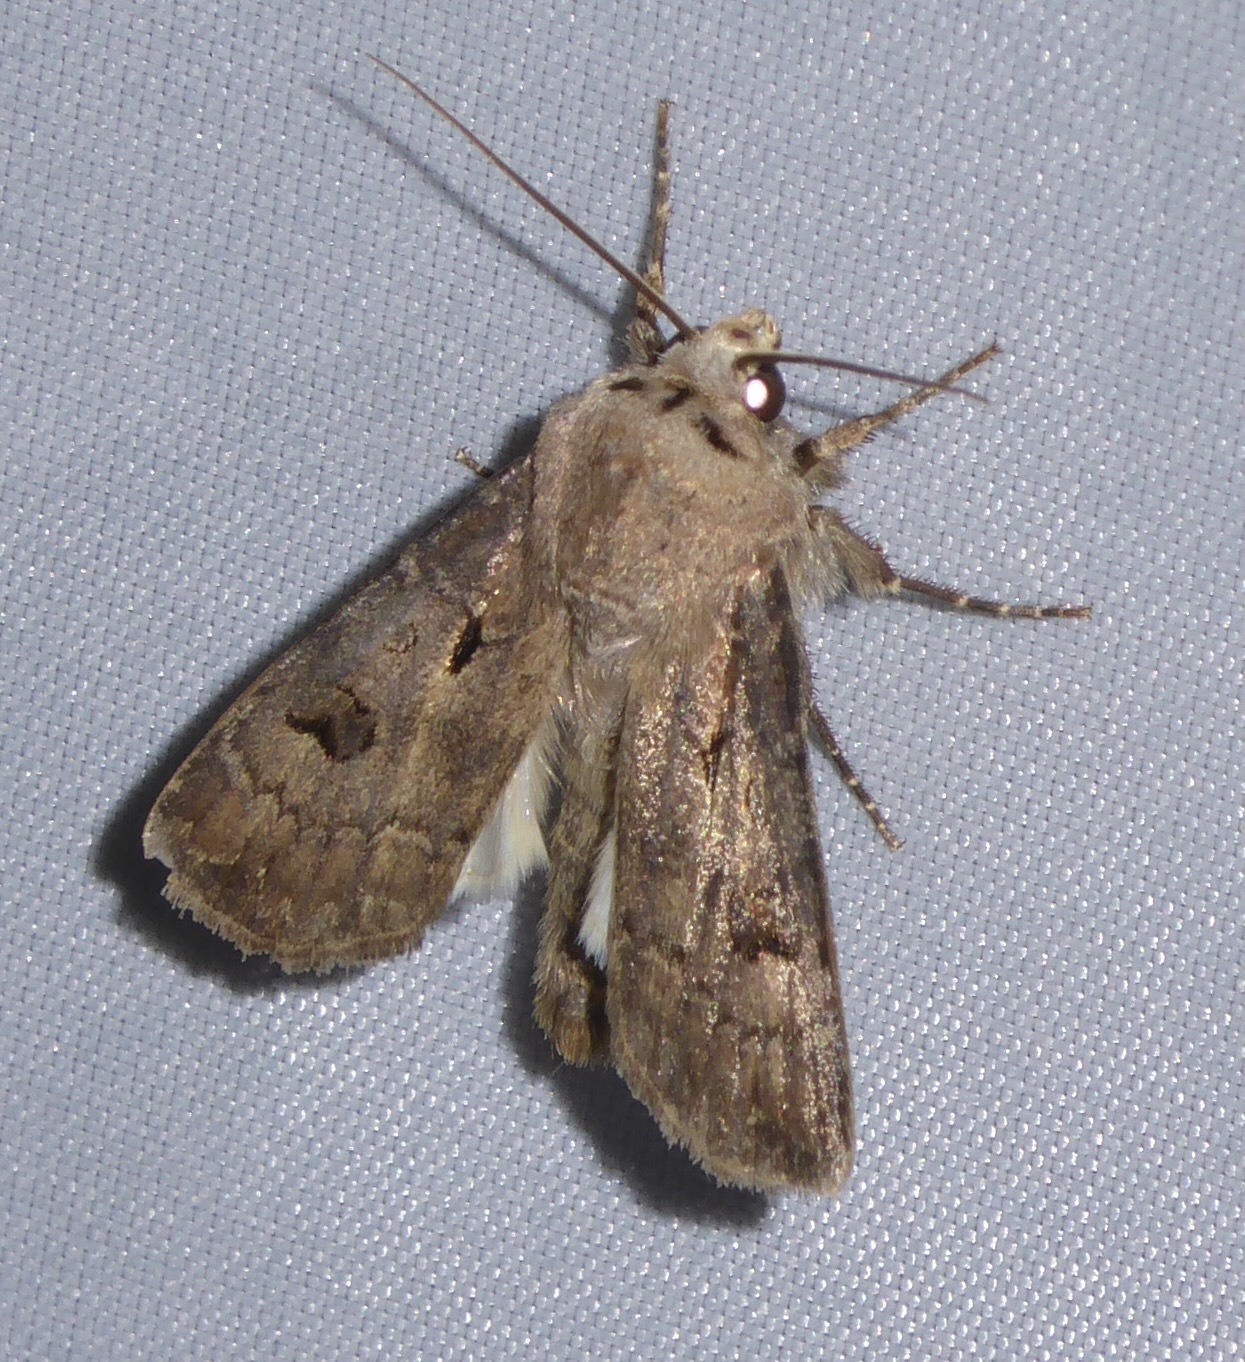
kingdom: Animalia
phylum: Arthropoda
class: Insecta
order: Lepidoptera
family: Noctuidae
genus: Agrotis
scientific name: Agrotis exclamationis
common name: Heart and dart
